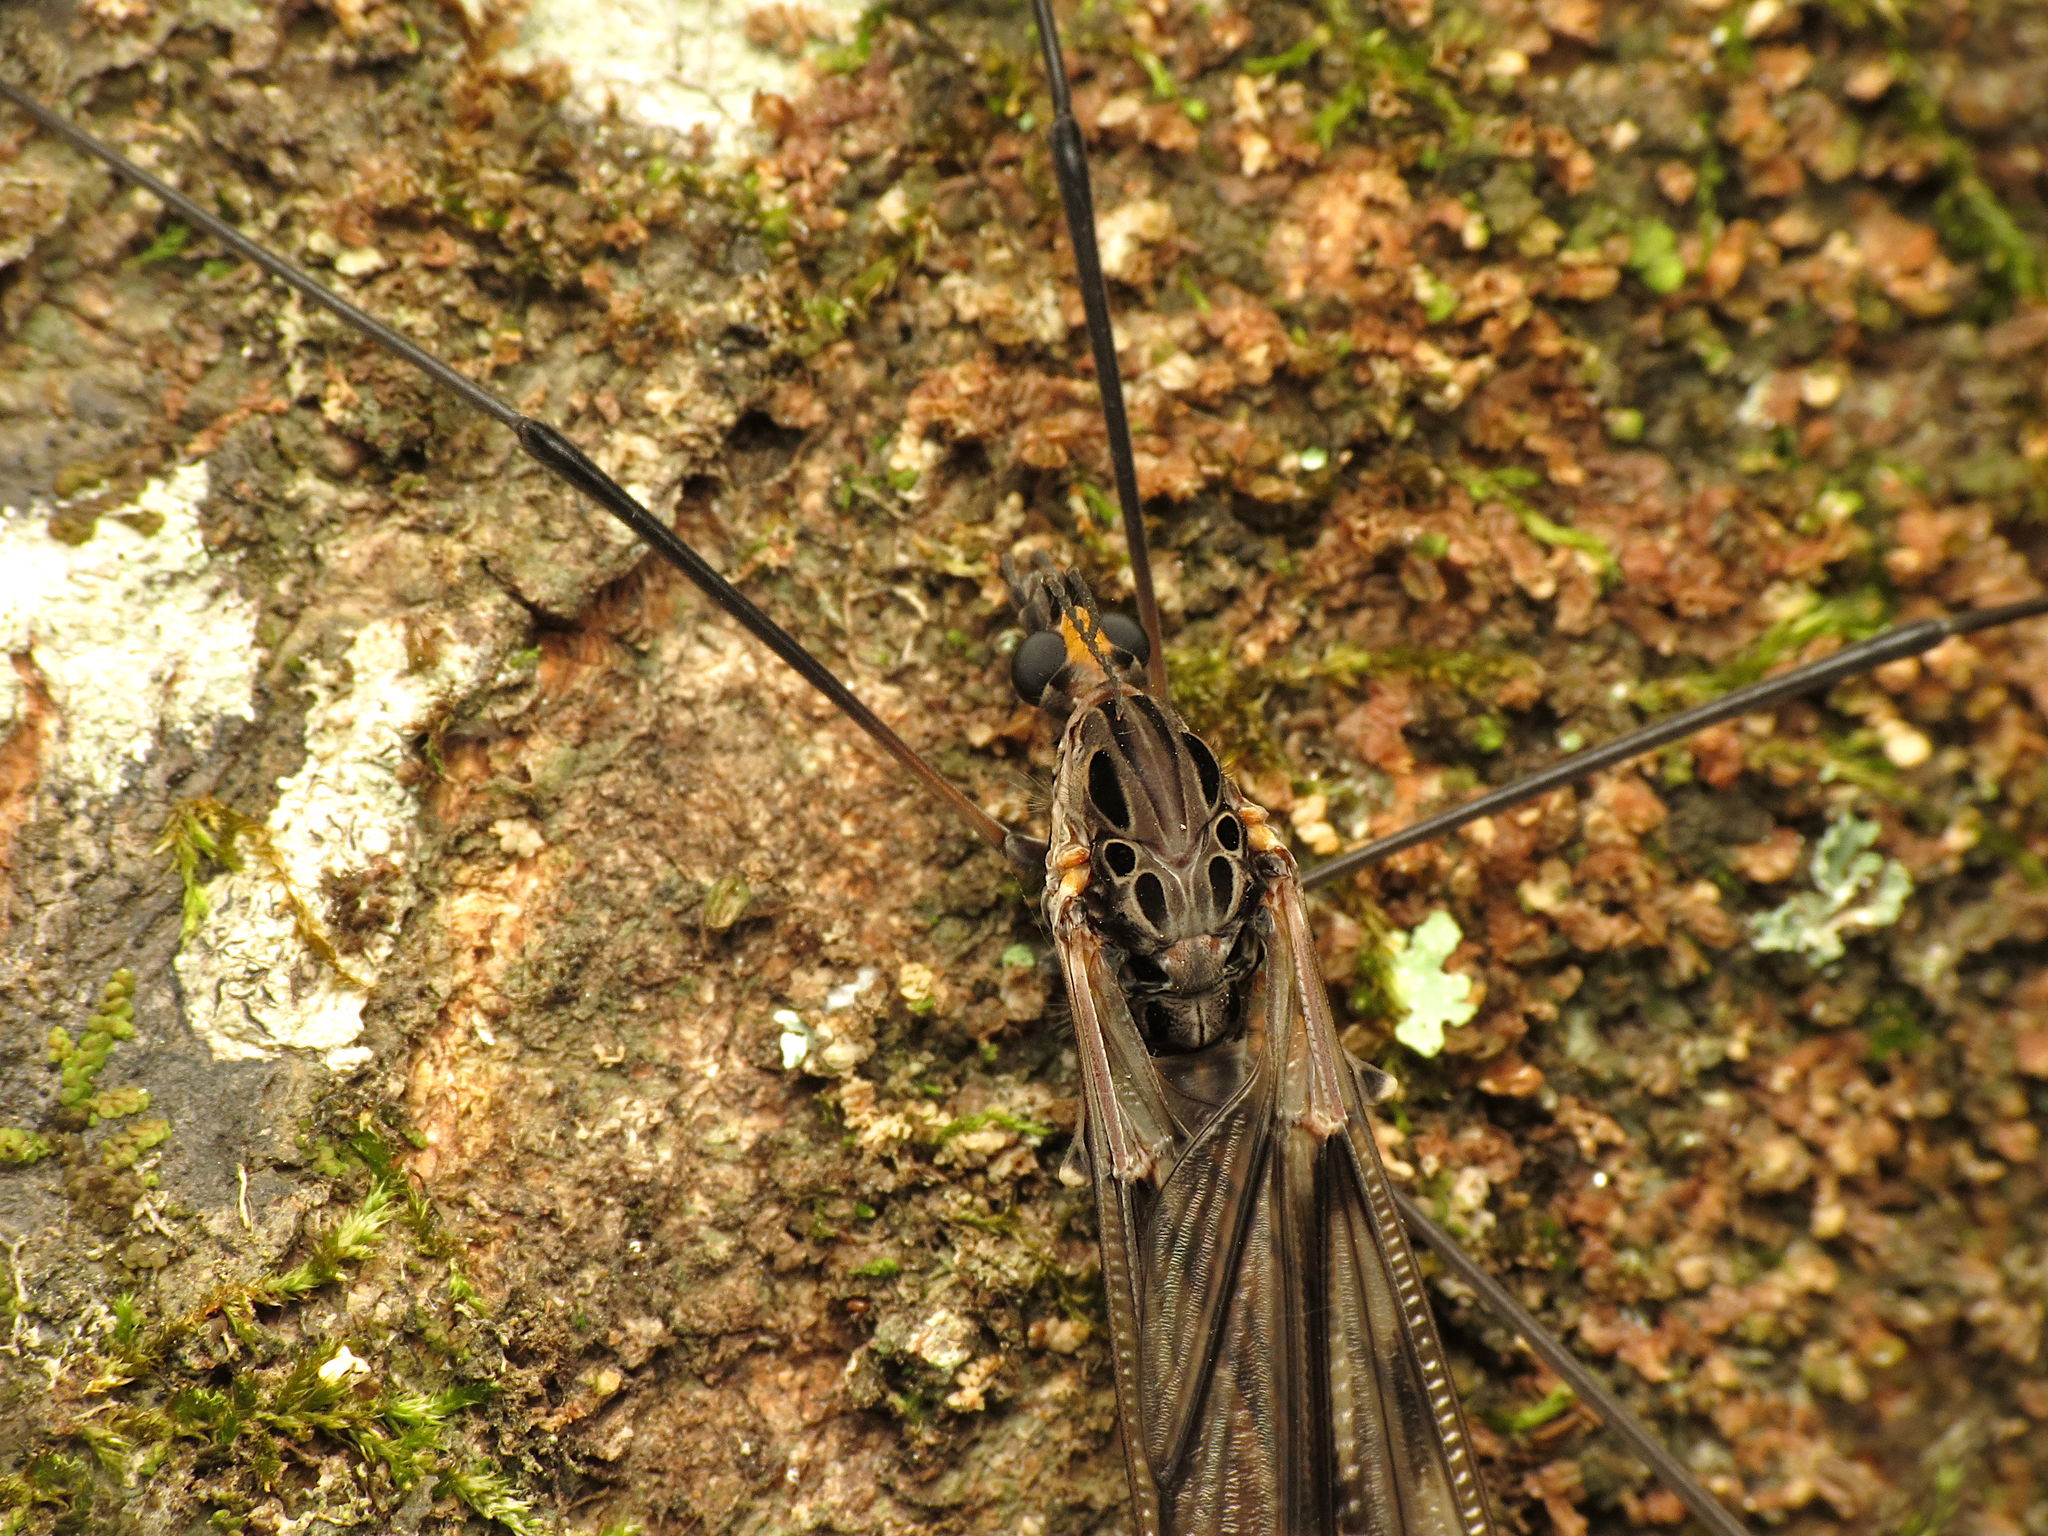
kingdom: Animalia
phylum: Arthropoda
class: Insecta
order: Diptera
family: Tipulidae
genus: Tipula
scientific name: Tipula metacomet
